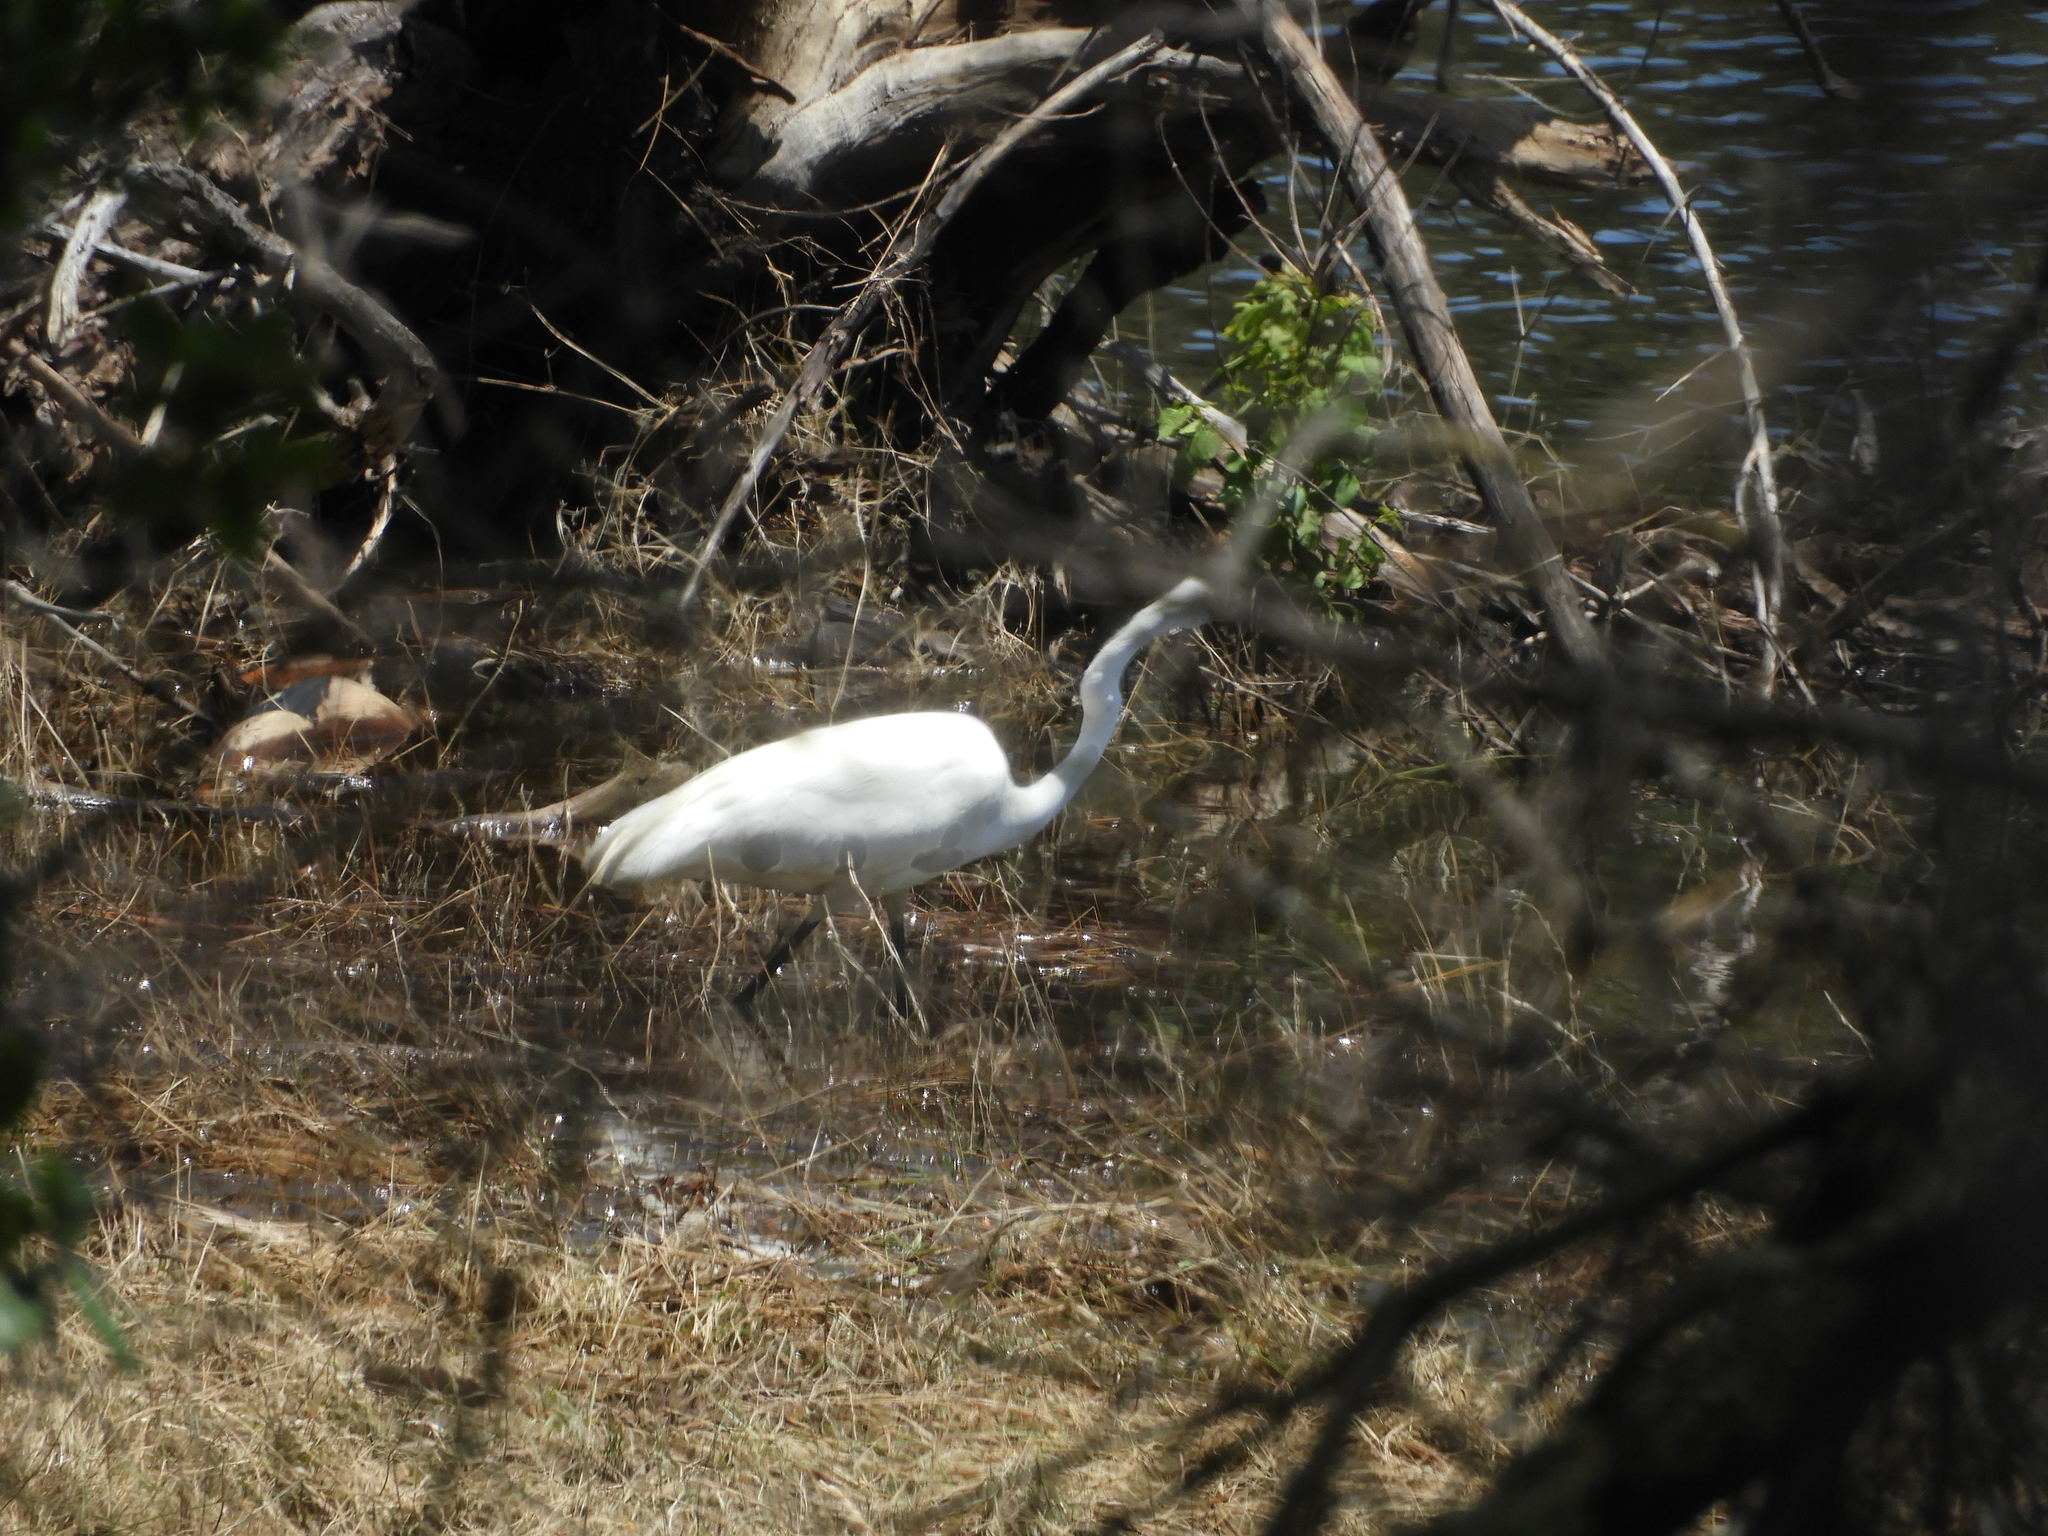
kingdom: Animalia
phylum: Chordata
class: Aves
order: Pelecaniformes
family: Ardeidae
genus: Ardea
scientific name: Ardea alba
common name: Great egret
